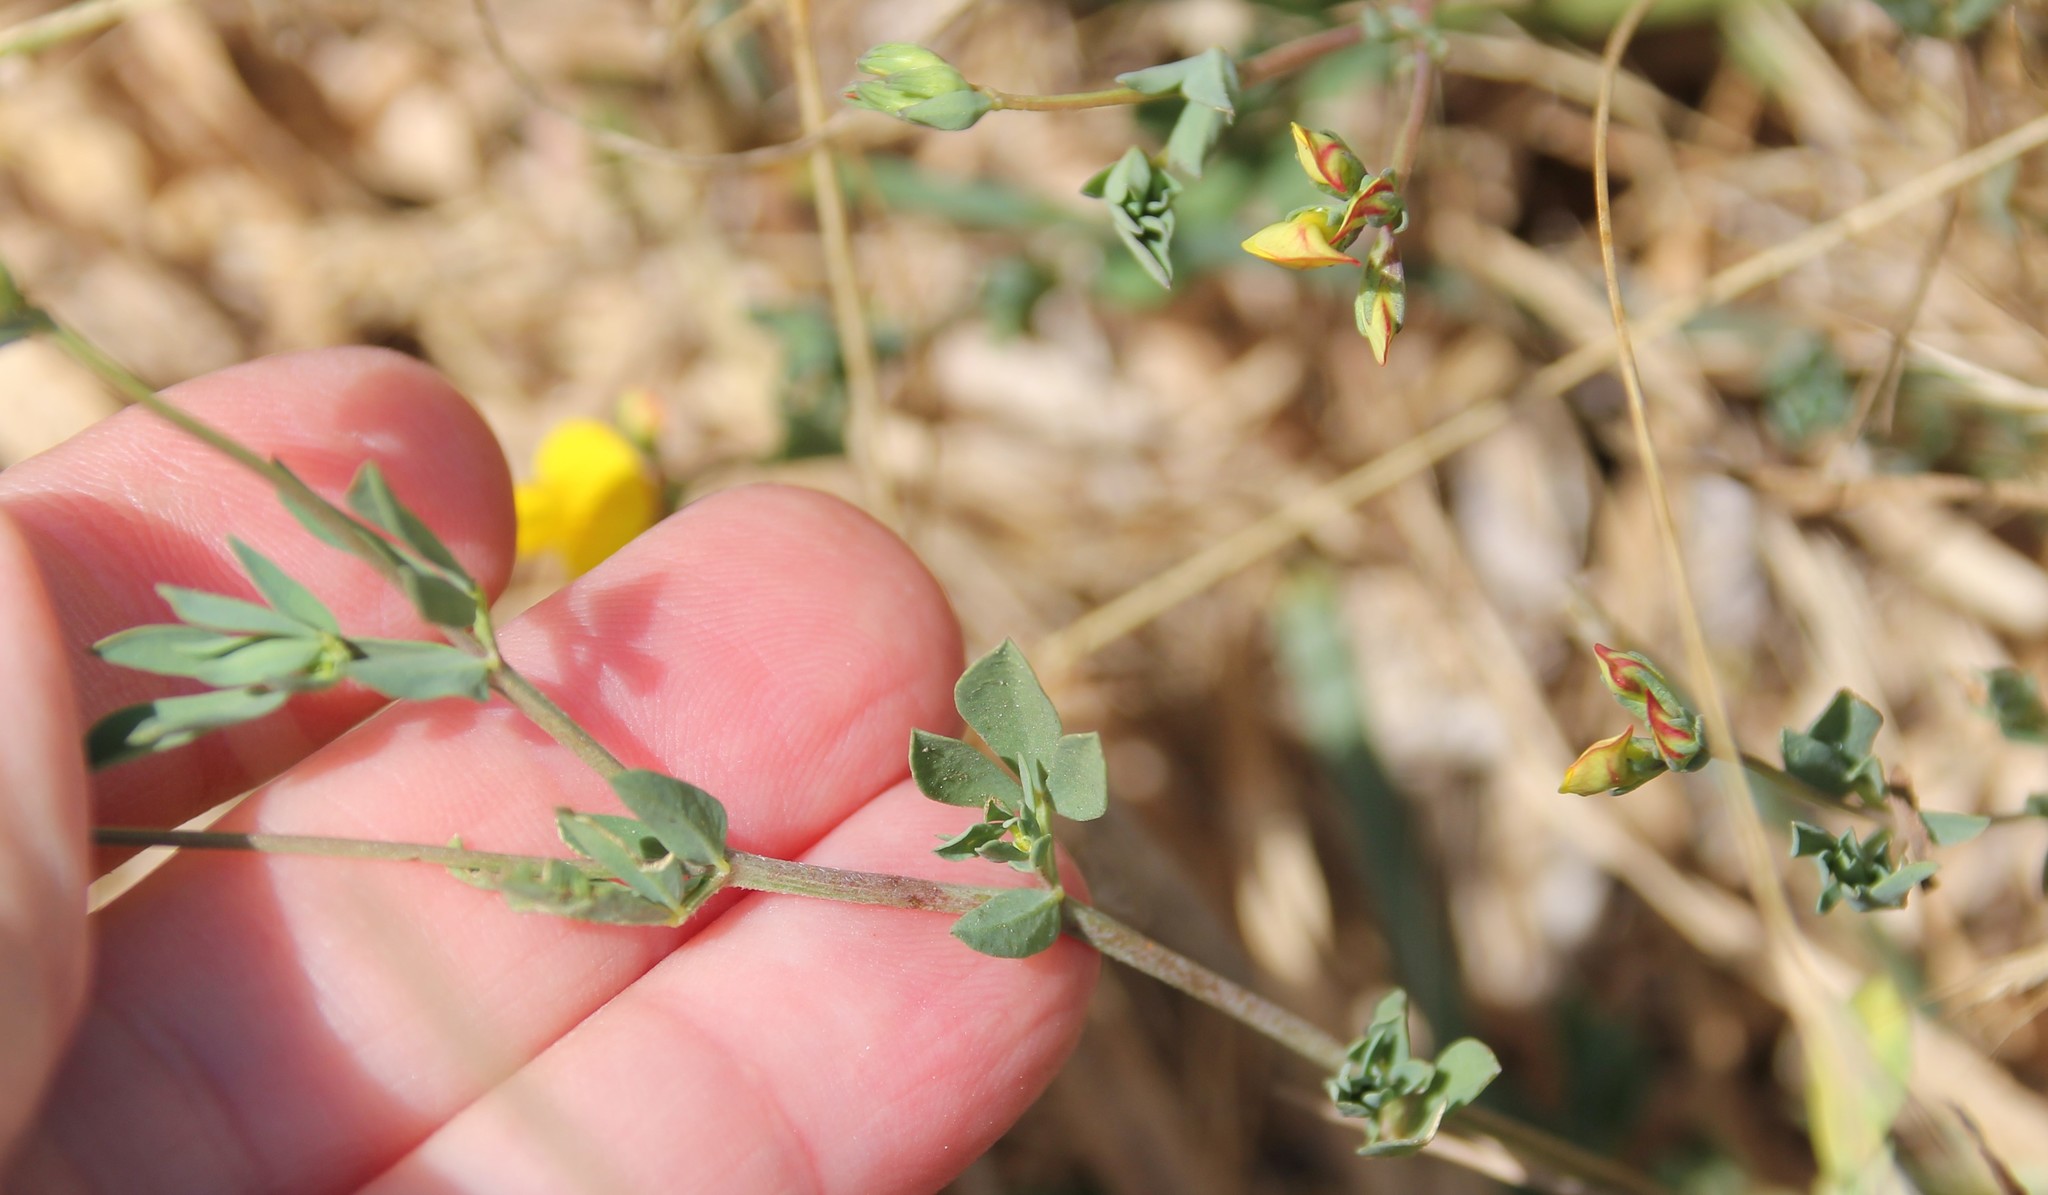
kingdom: Plantae
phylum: Tracheophyta
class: Magnoliopsida
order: Fabales
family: Fabaceae
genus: Lotus
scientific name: Lotus corniculatus
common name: Common bird's-foot-trefoil
